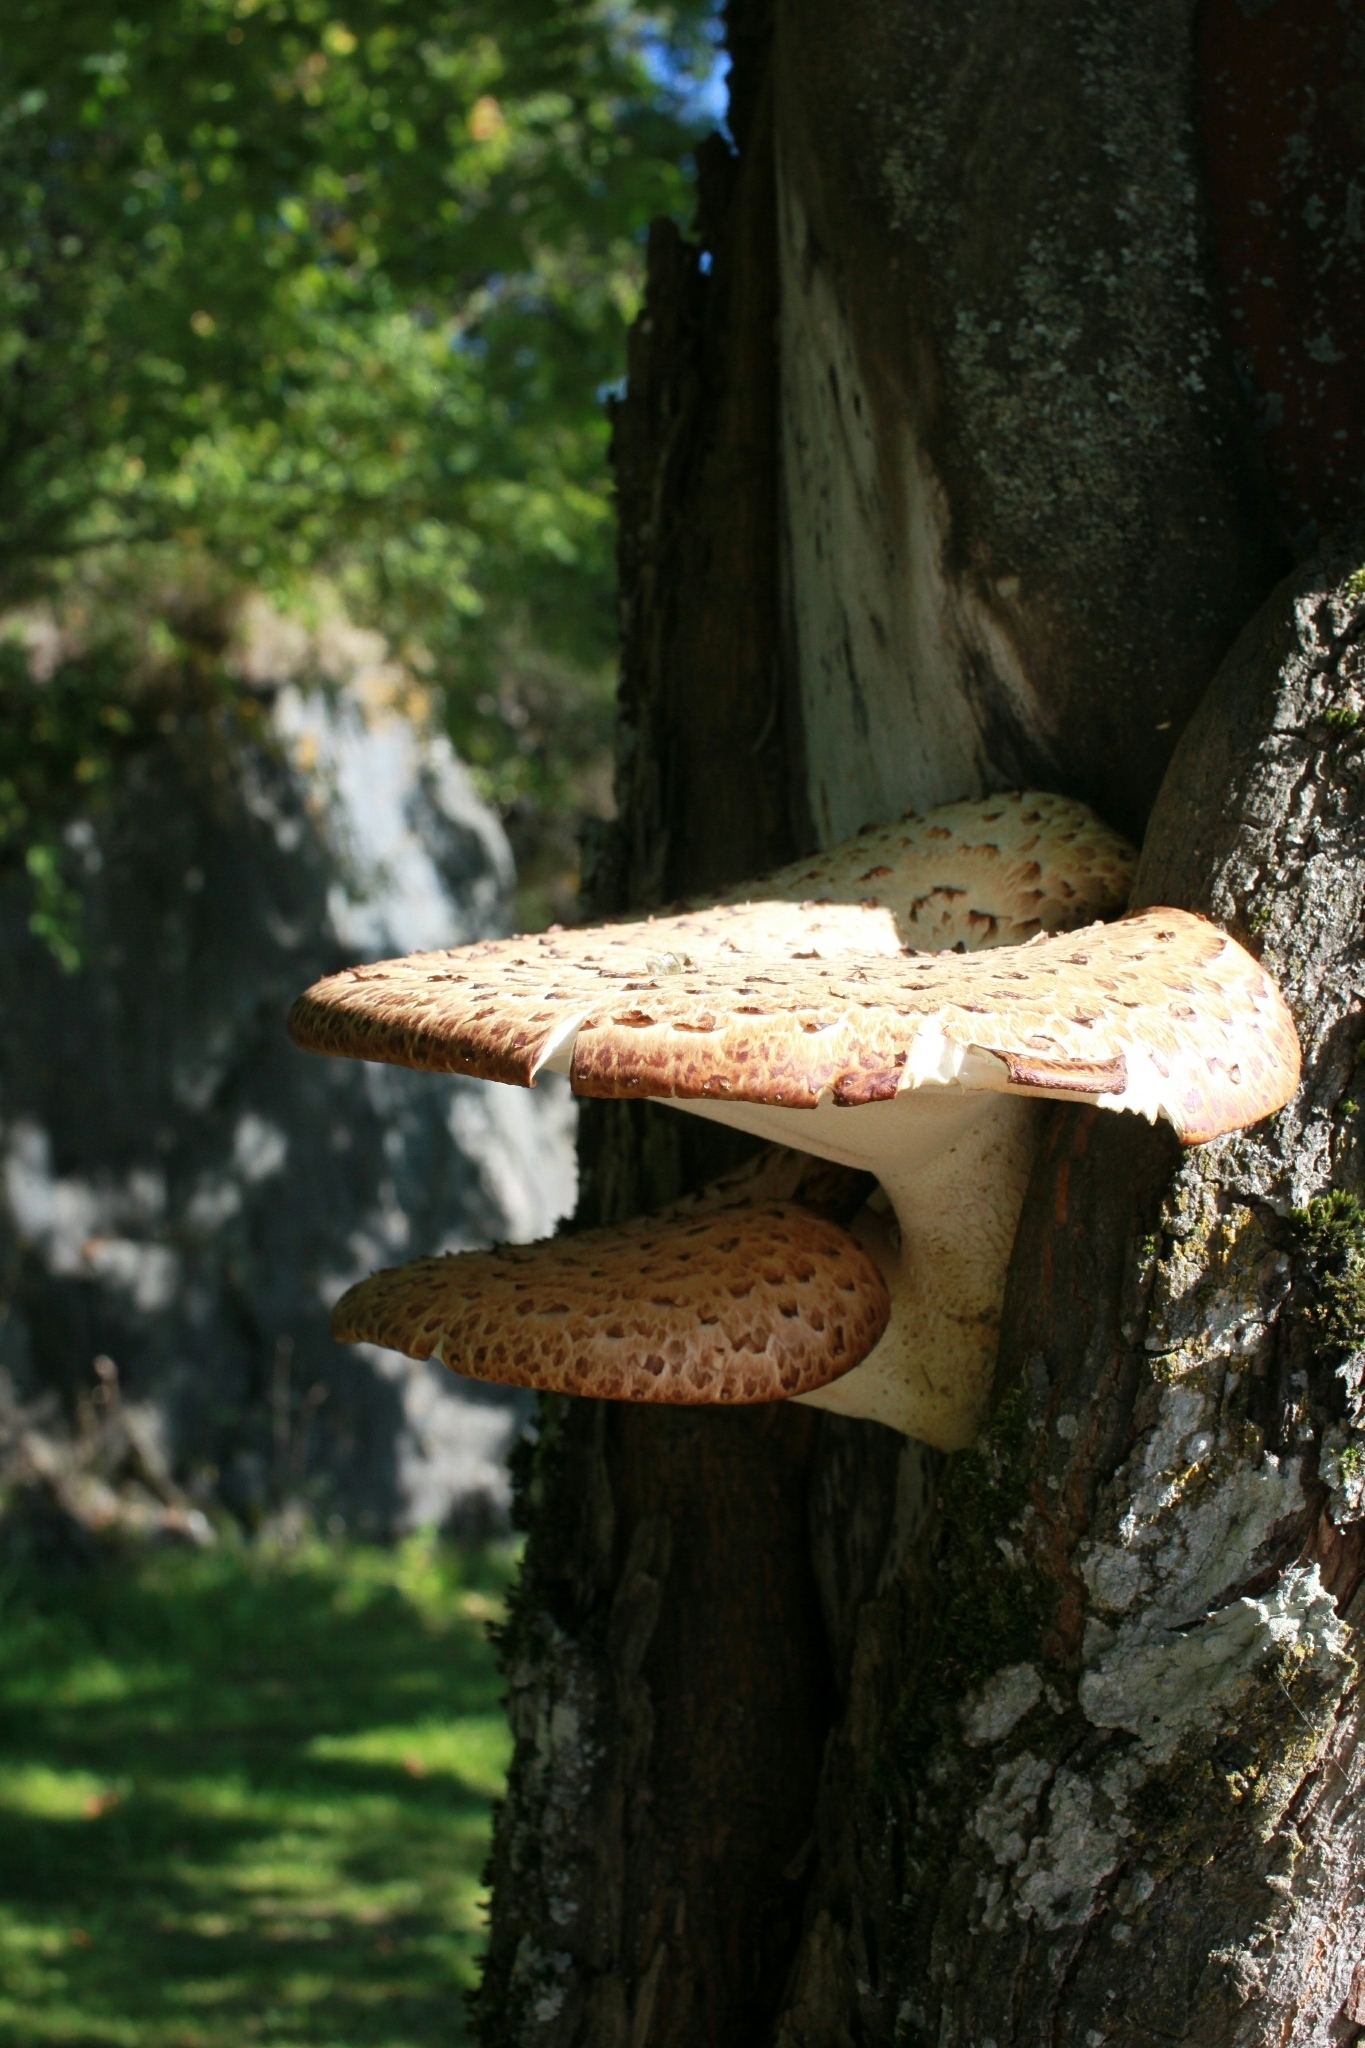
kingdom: Fungi
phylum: Basidiomycota
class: Agaricomycetes
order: Polyporales
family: Polyporaceae
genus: Cerioporus
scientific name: Cerioporus squamosus
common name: Dryad's saddle
